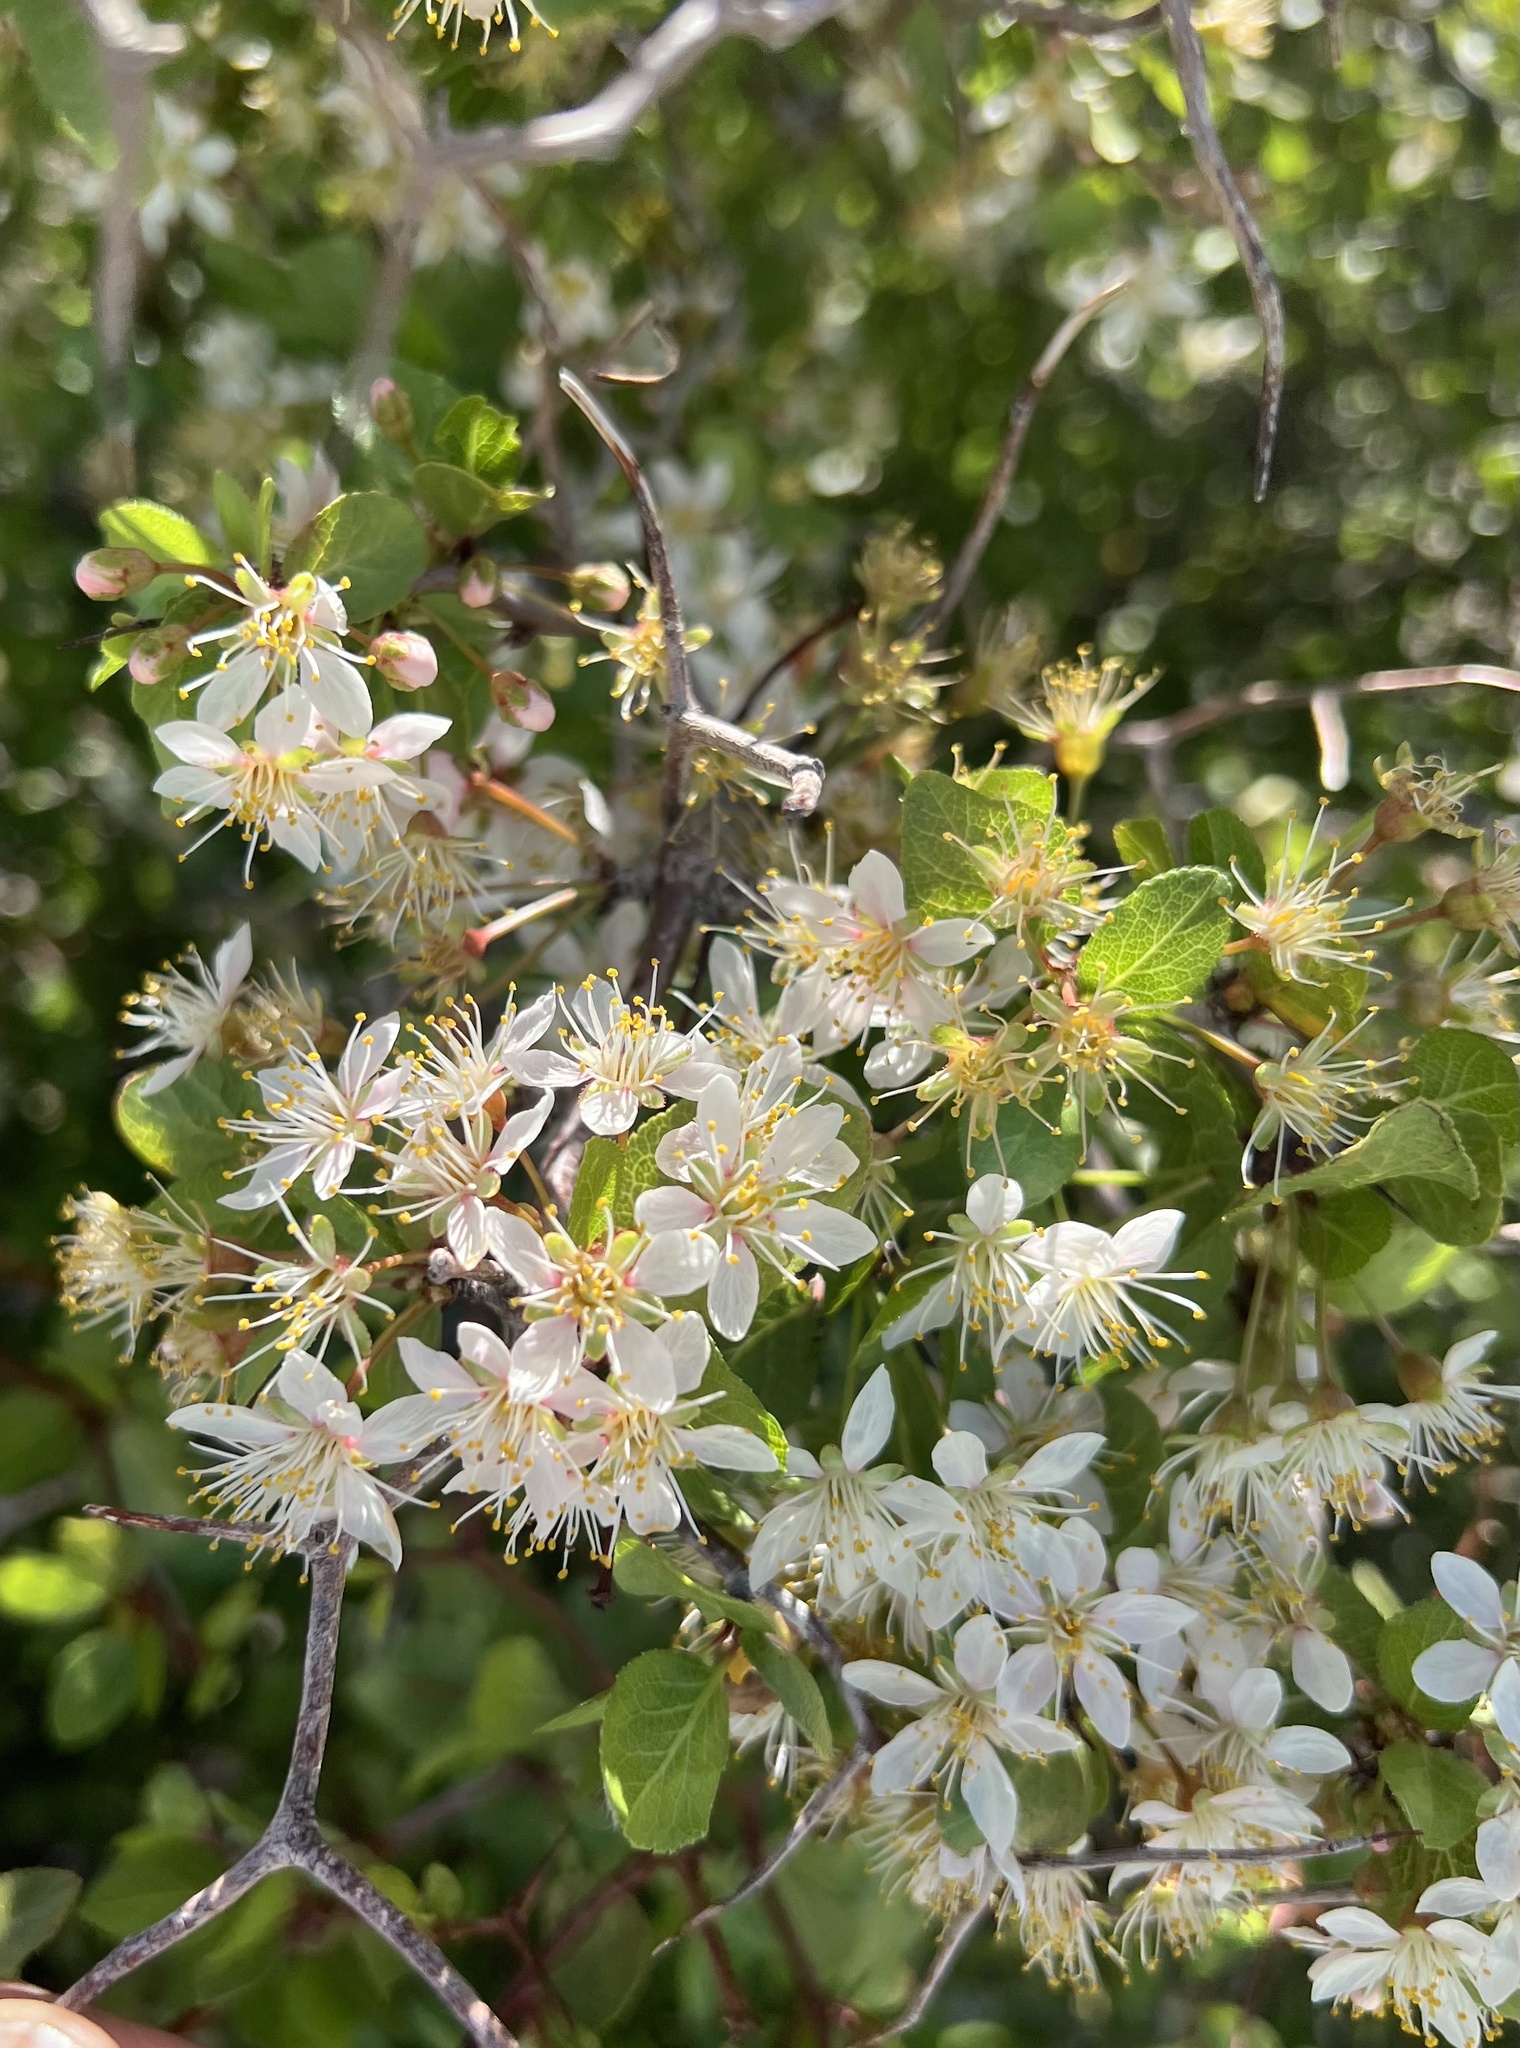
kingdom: Plantae
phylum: Tracheophyta
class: Magnoliopsida
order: Rosales
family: Rosaceae
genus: Prunus
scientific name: Prunus fremontii
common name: Desert apricot
